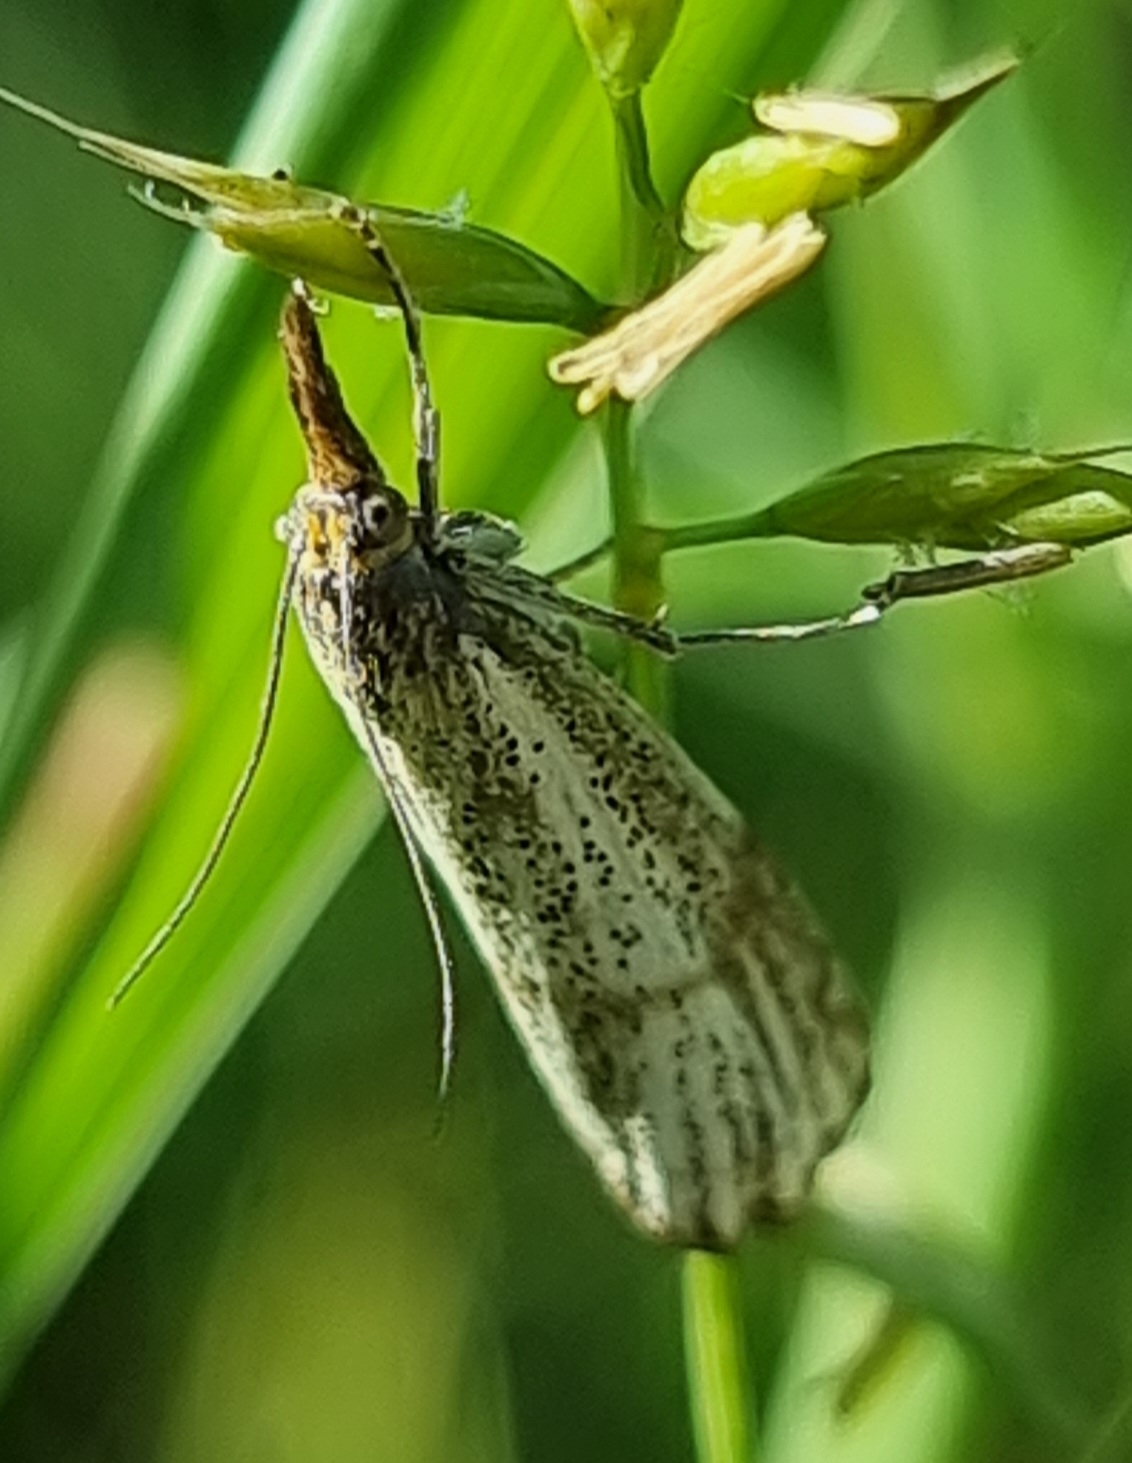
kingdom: Animalia
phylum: Arthropoda
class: Insecta
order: Lepidoptera
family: Crambidae
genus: Thisanotia
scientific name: Thisanotia chrysonuchella
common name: Powdered grass-veneer
